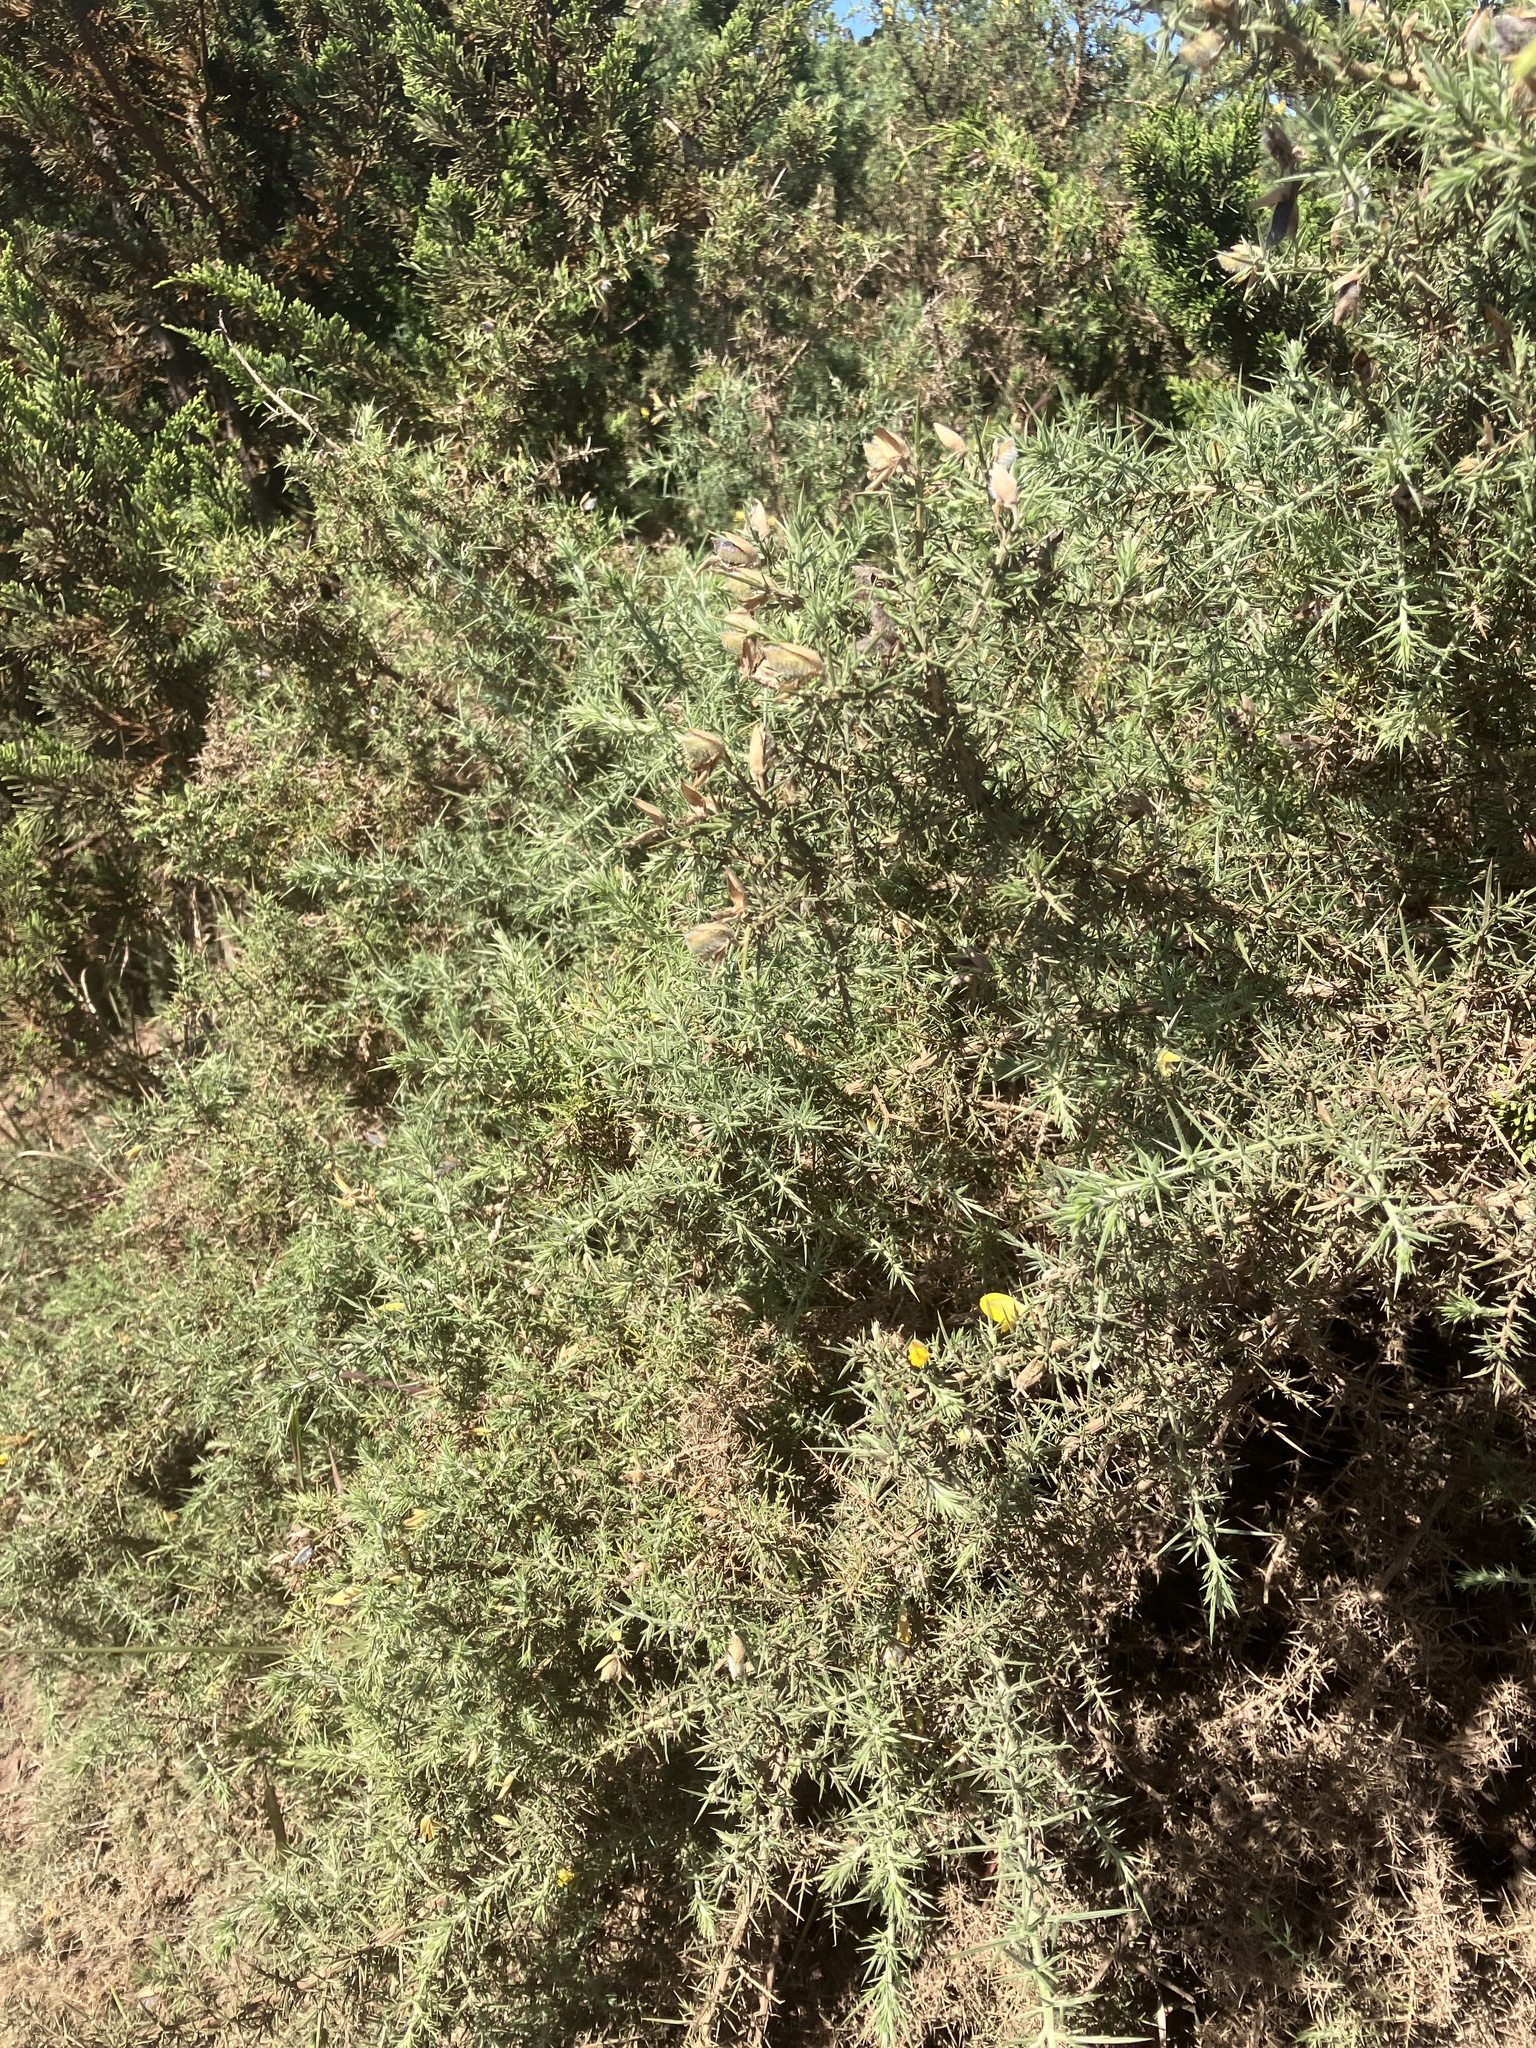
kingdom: Plantae
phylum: Tracheophyta
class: Magnoliopsida
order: Fabales
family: Fabaceae
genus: Ulex
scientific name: Ulex europaeus
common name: Common gorse
